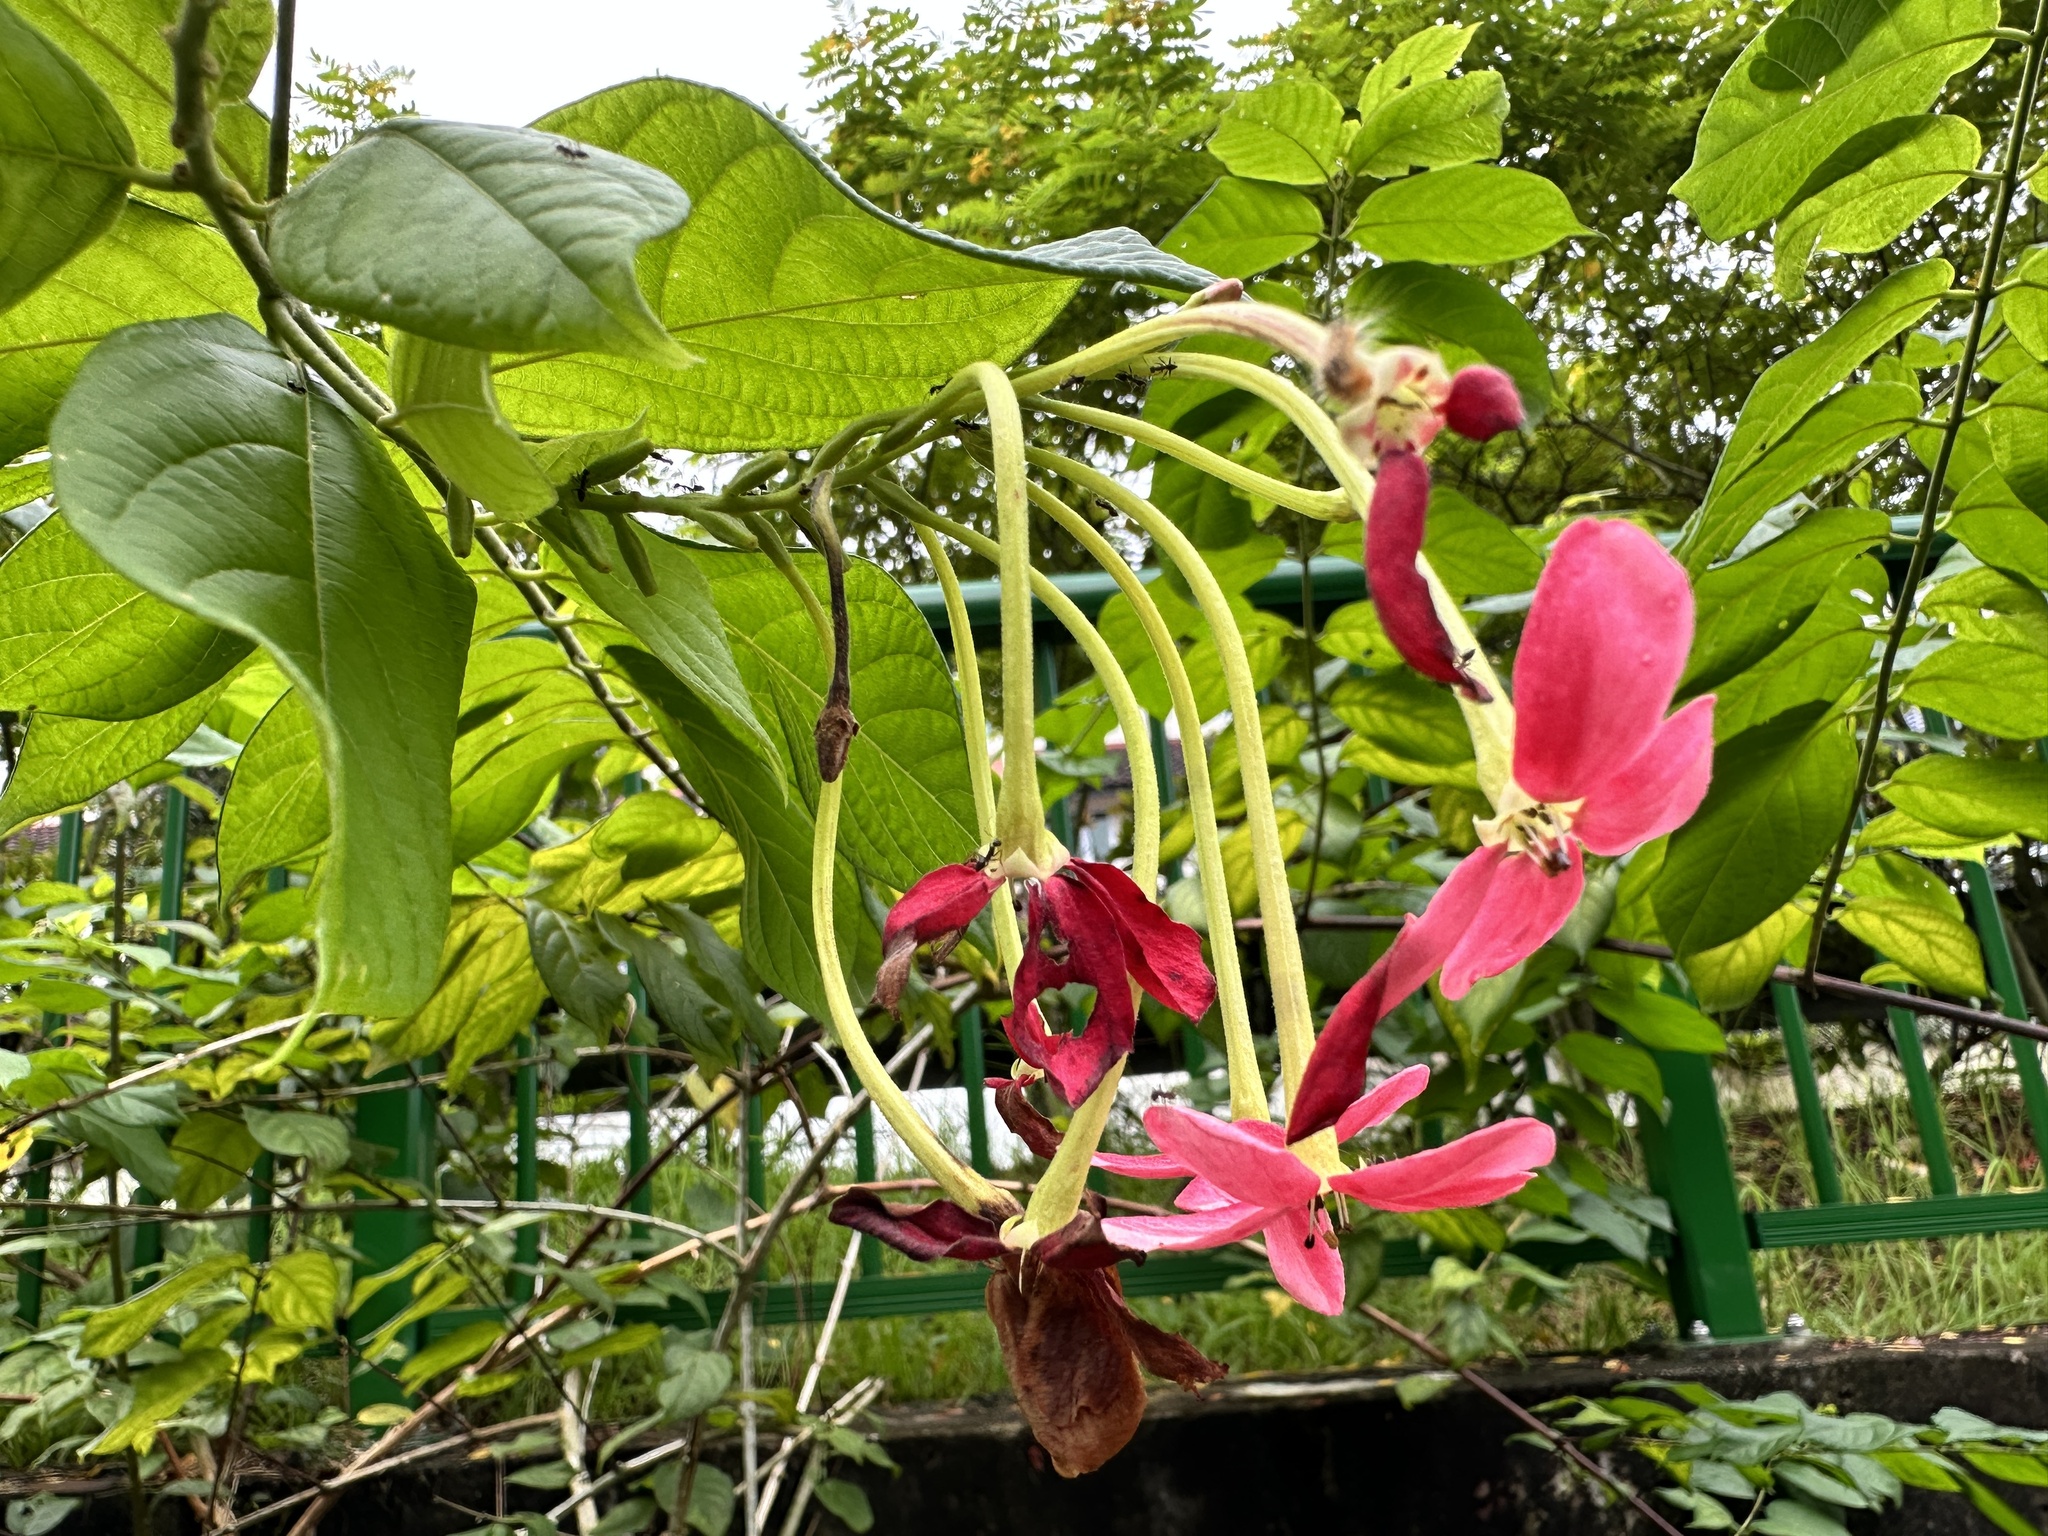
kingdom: Plantae
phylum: Tracheophyta
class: Magnoliopsida
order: Myrtales
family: Combretaceae
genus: Combretum
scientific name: Combretum indicum
